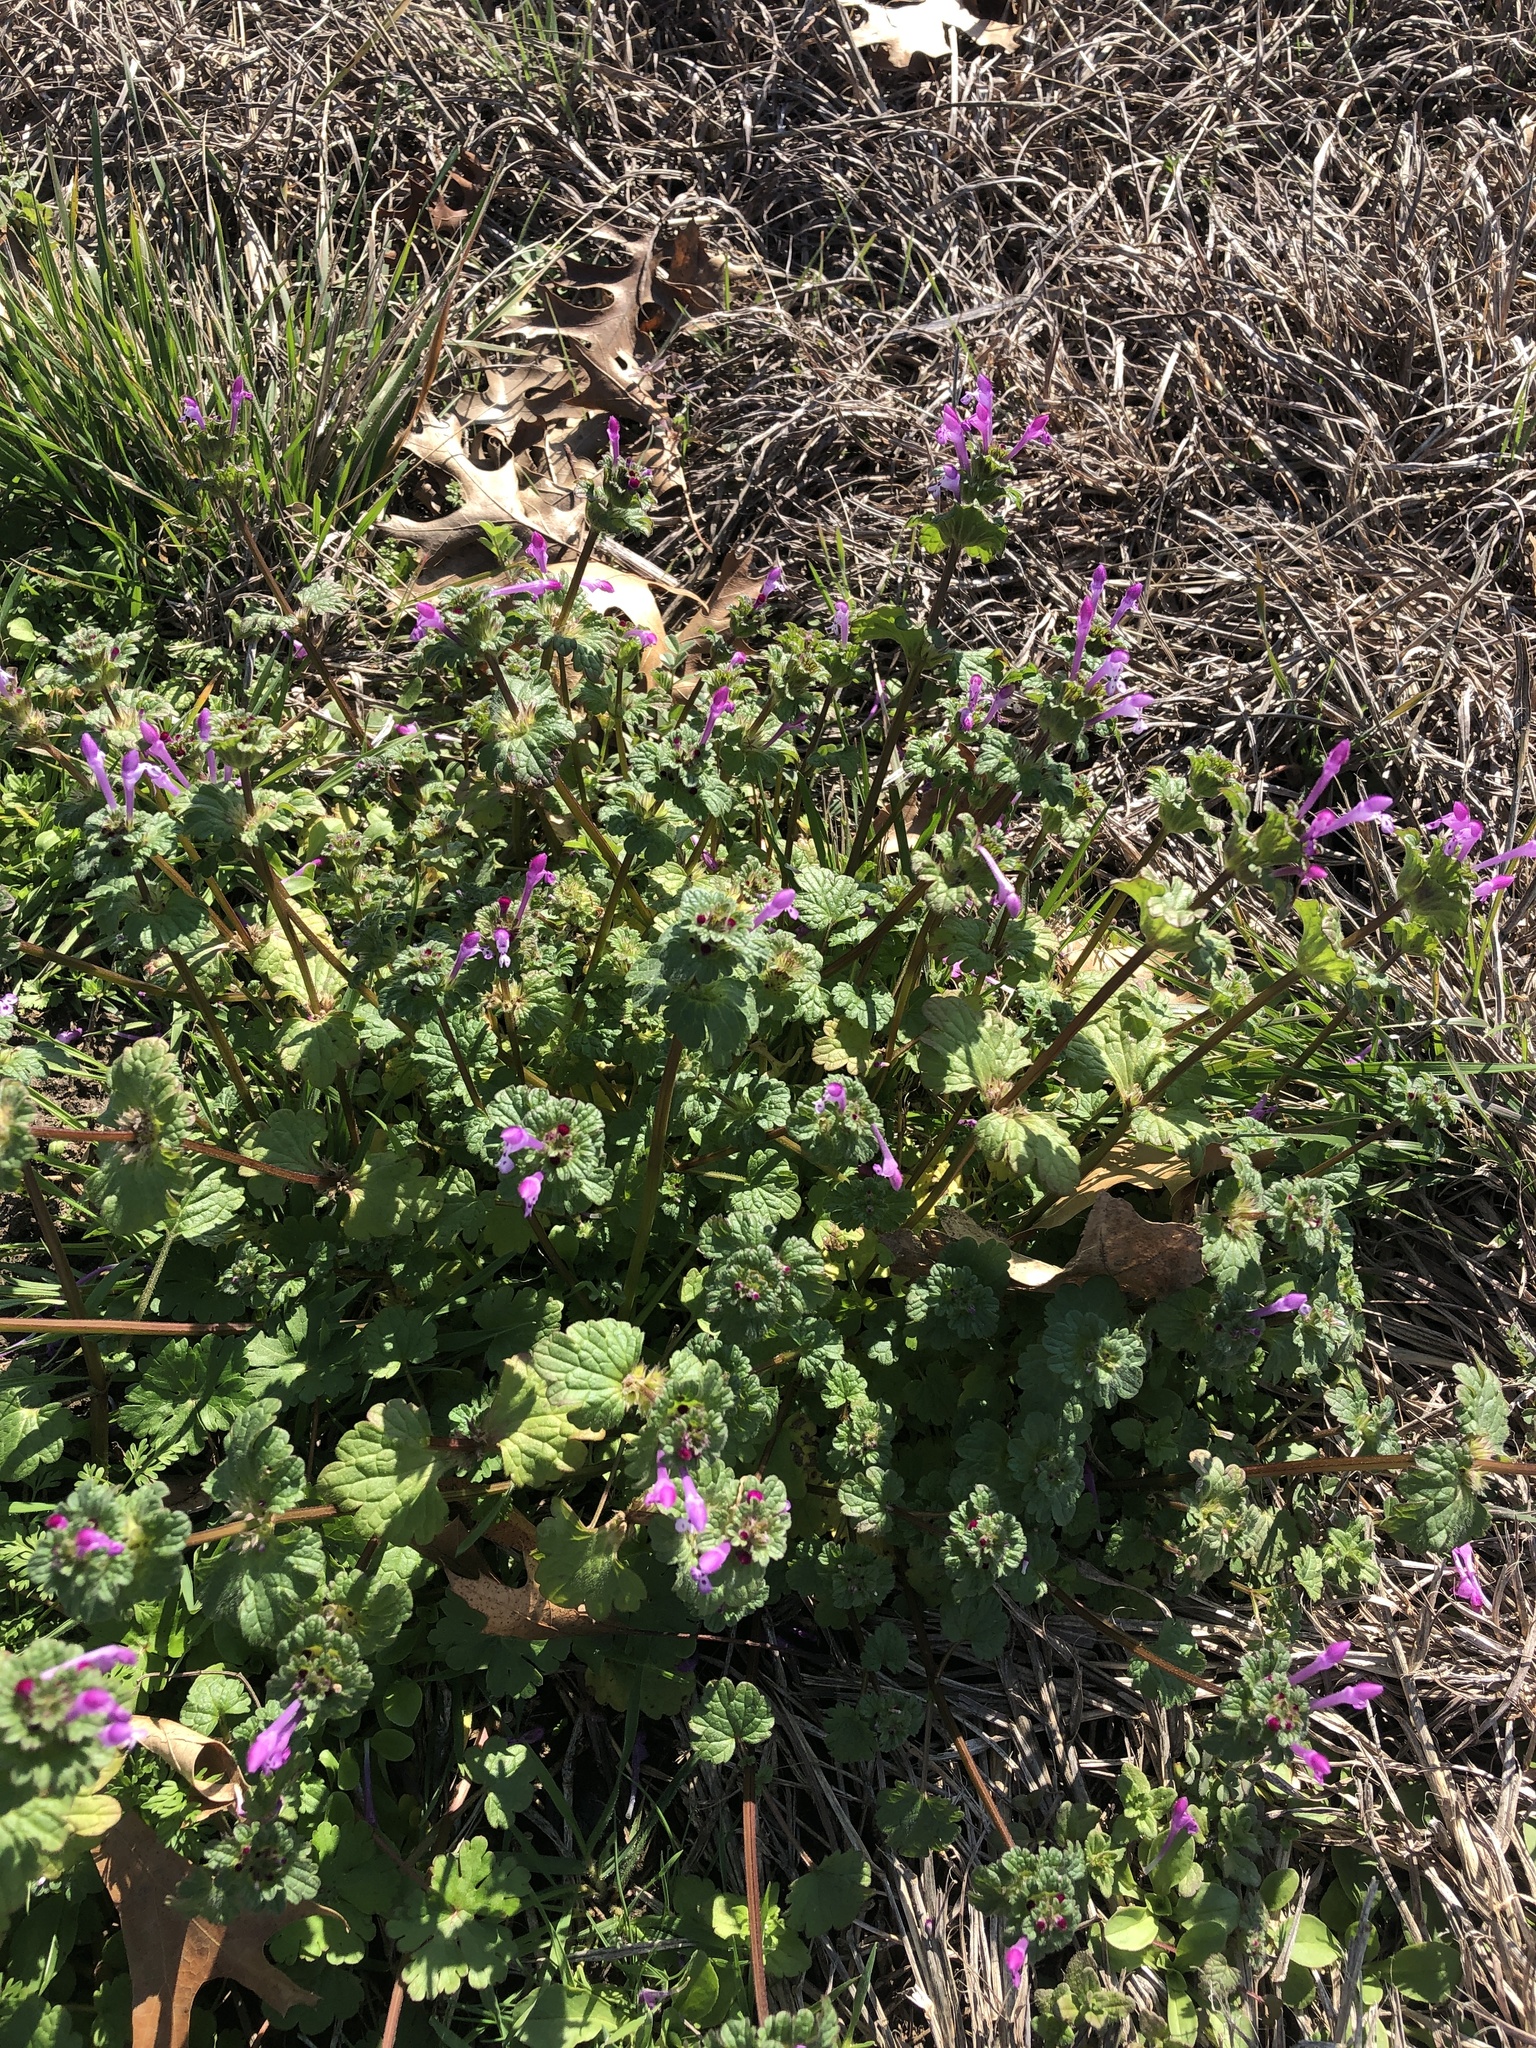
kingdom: Plantae
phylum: Tracheophyta
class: Magnoliopsida
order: Lamiales
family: Lamiaceae
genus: Lamium
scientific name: Lamium amplexicaule
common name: Henbit dead-nettle
